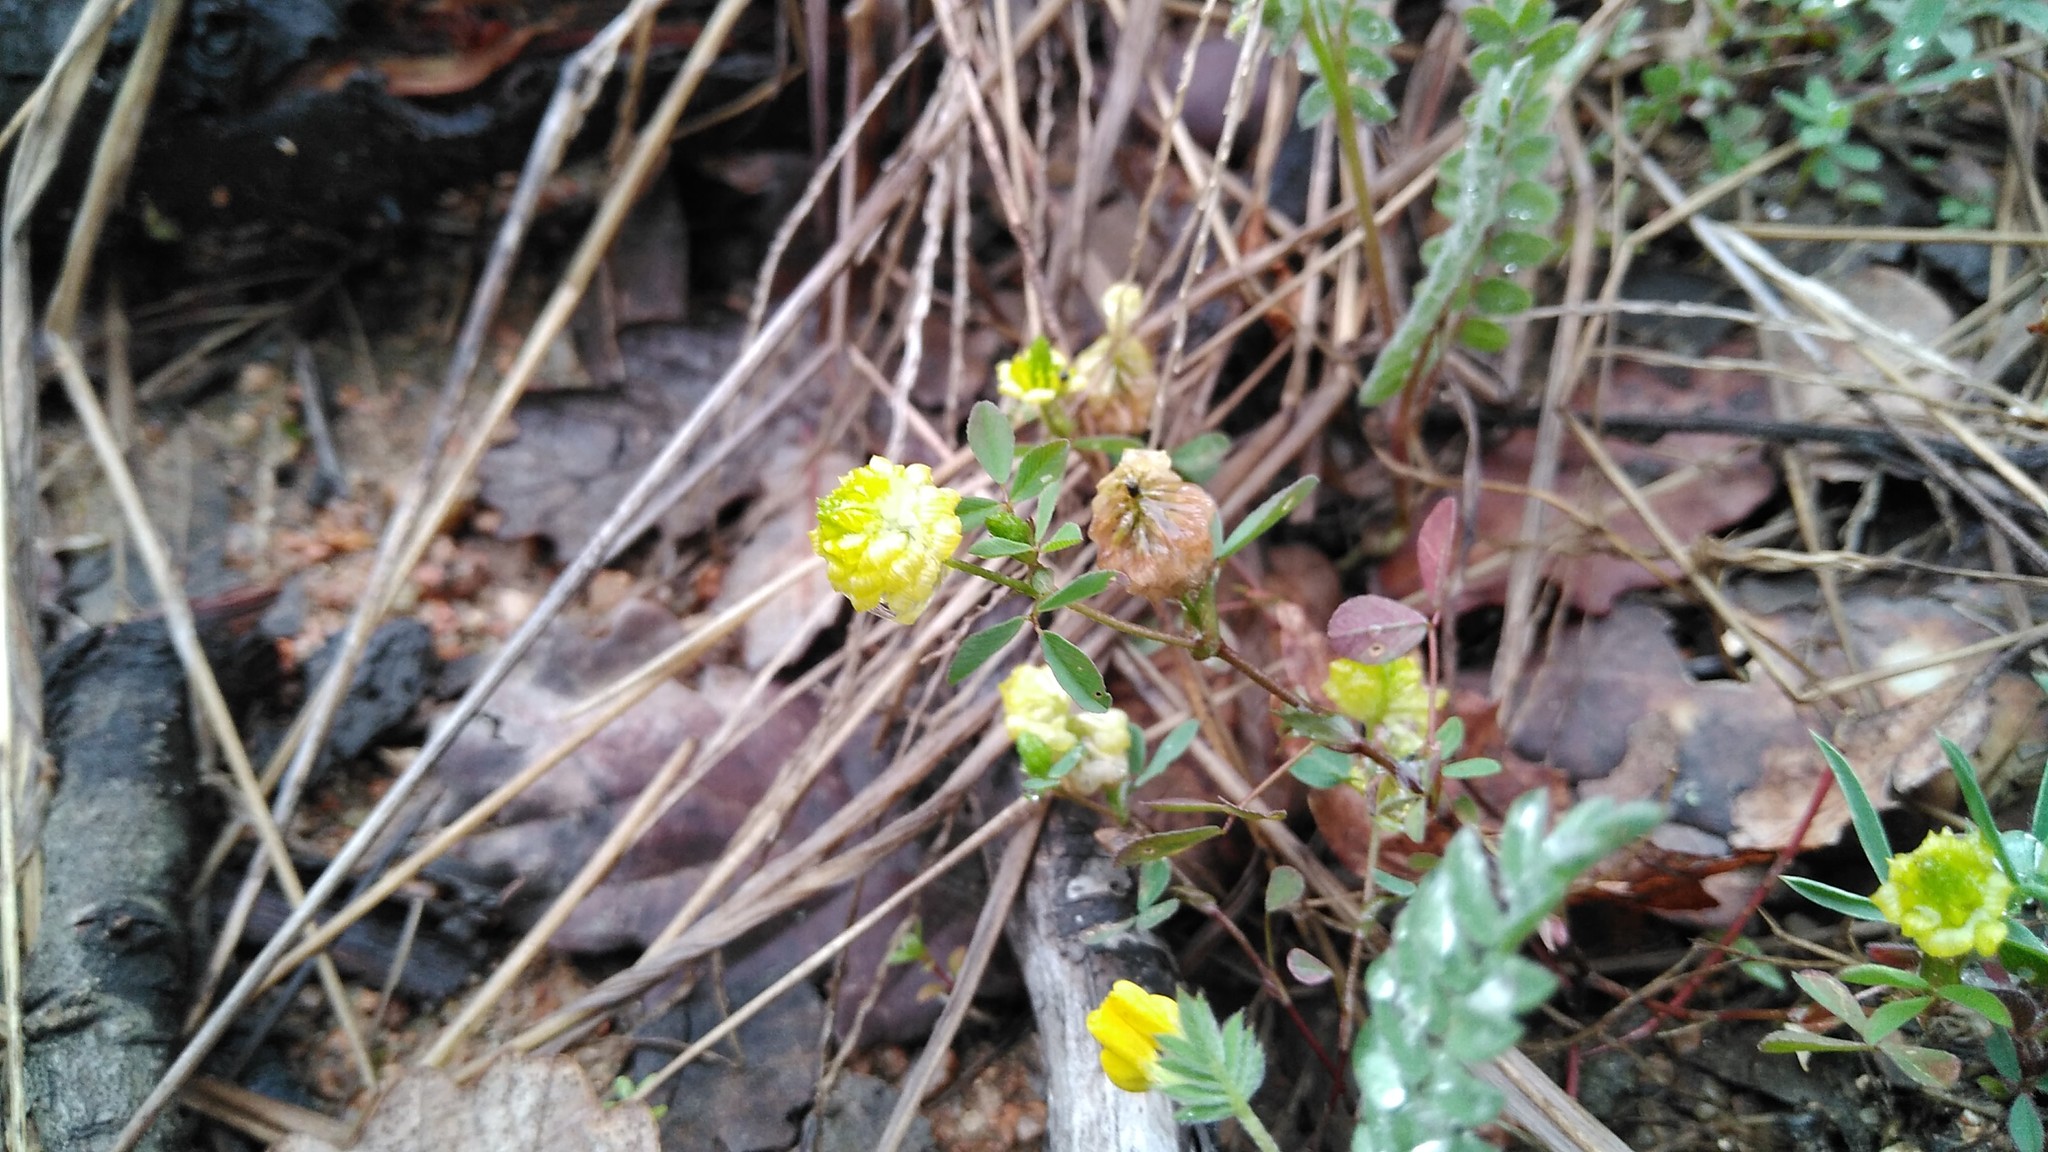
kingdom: Plantae
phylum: Tracheophyta
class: Magnoliopsida
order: Fabales
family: Fabaceae
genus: Trifolium
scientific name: Trifolium campestre
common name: Field clover
